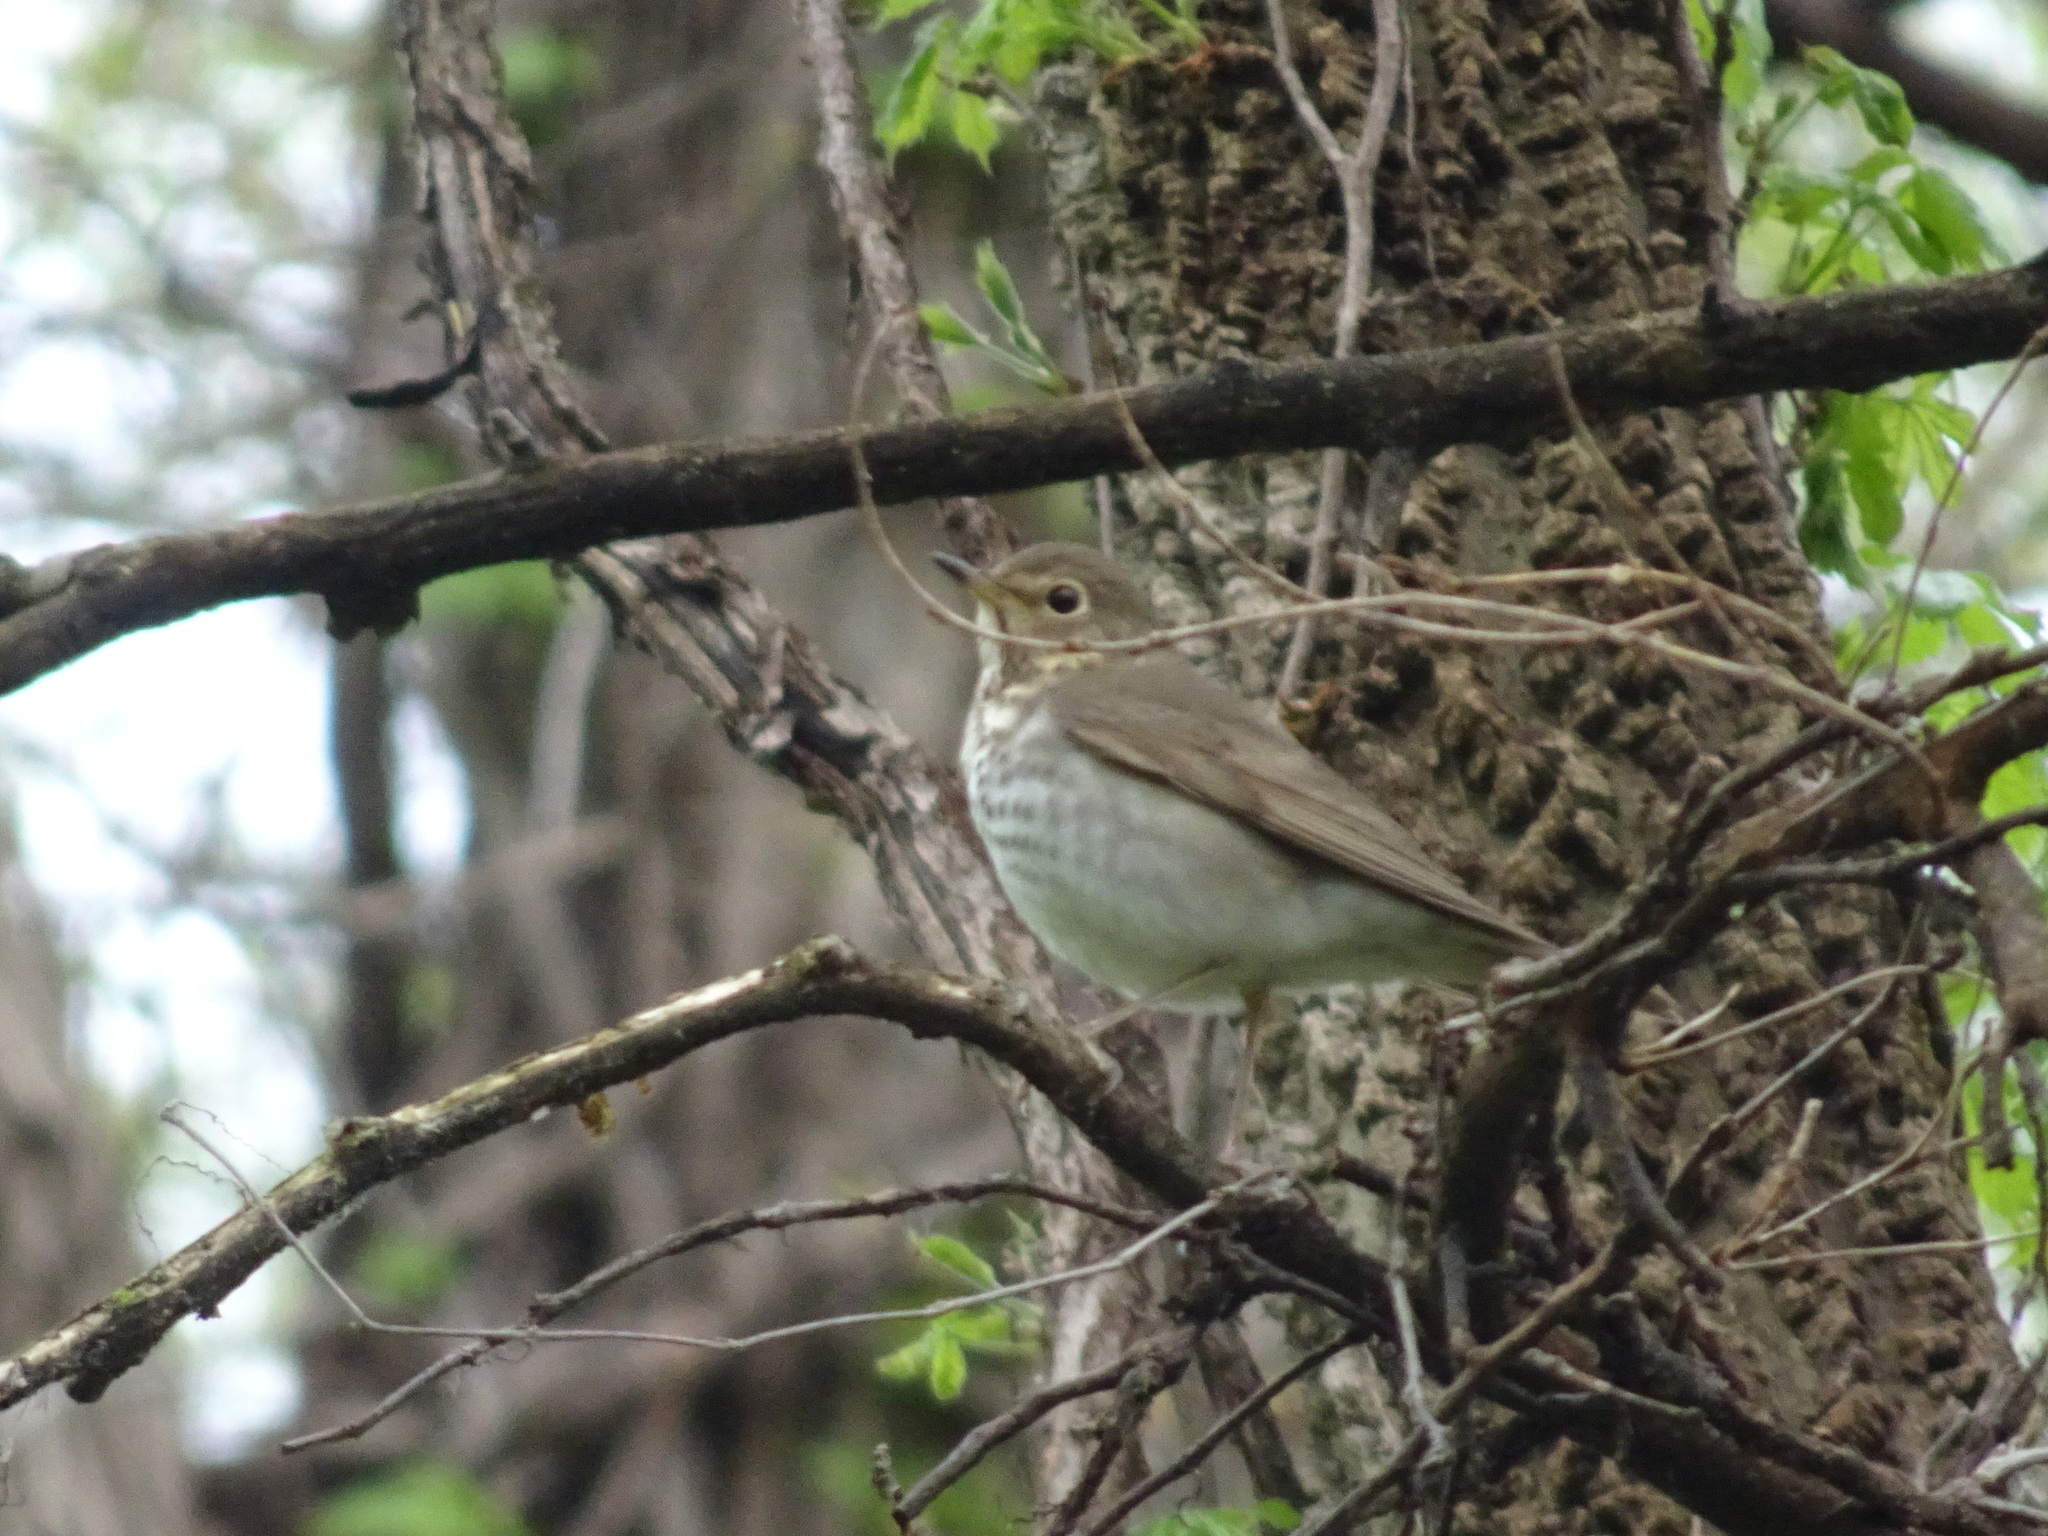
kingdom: Animalia
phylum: Chordata
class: Aves
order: Passeriformes
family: Turdidae
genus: Catharus
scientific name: Catharus ustulatus
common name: Swainson's thrush
